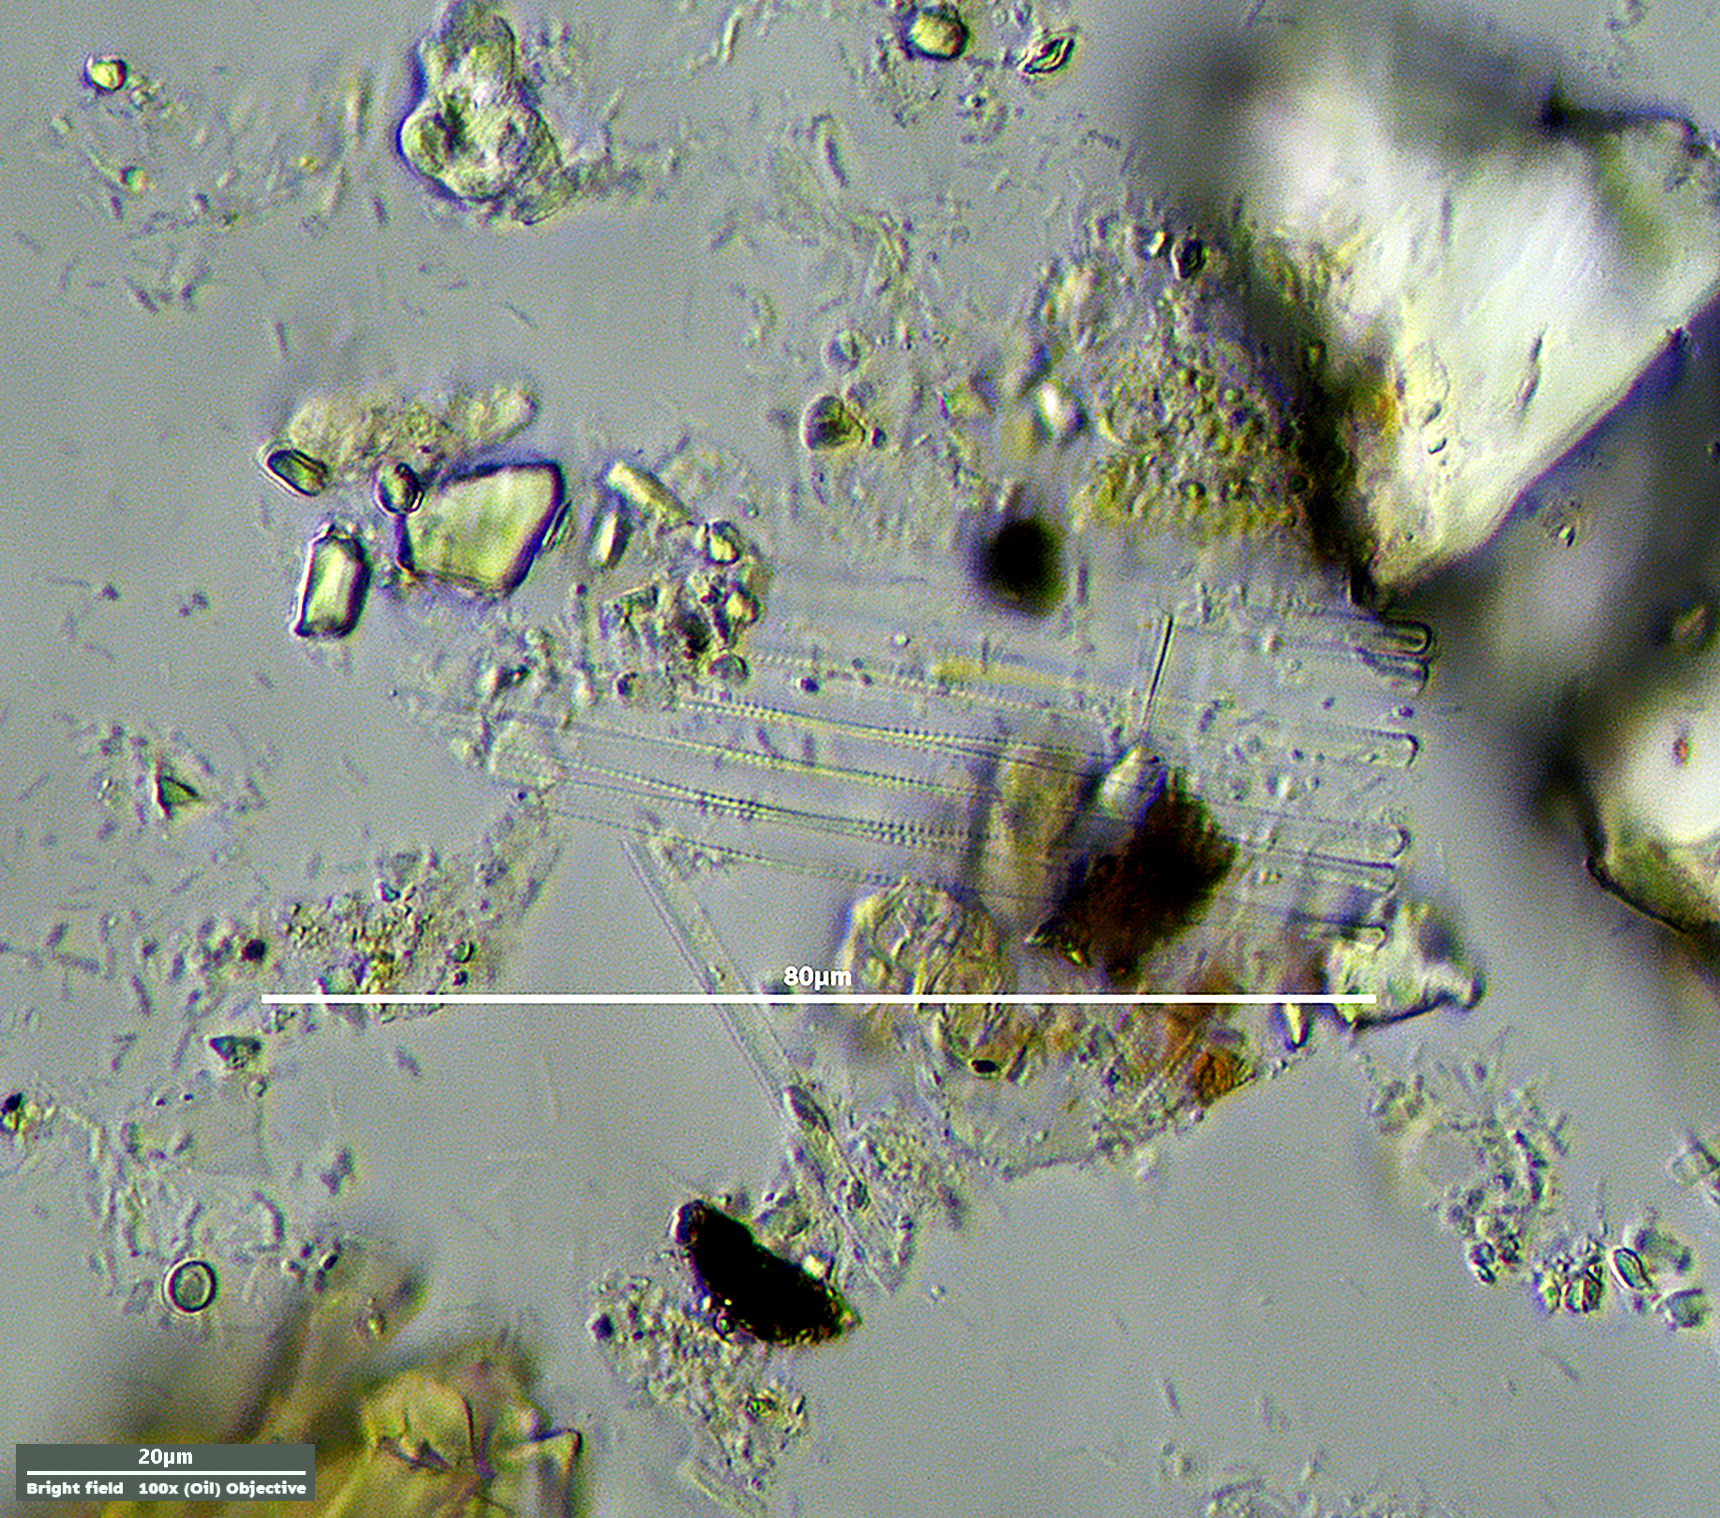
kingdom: Chromista
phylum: Ochrophyta
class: Bacillariophyceae
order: Fragilariales
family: Fragilariaceae
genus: Fragilaria
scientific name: Fragilaria crotonensis
